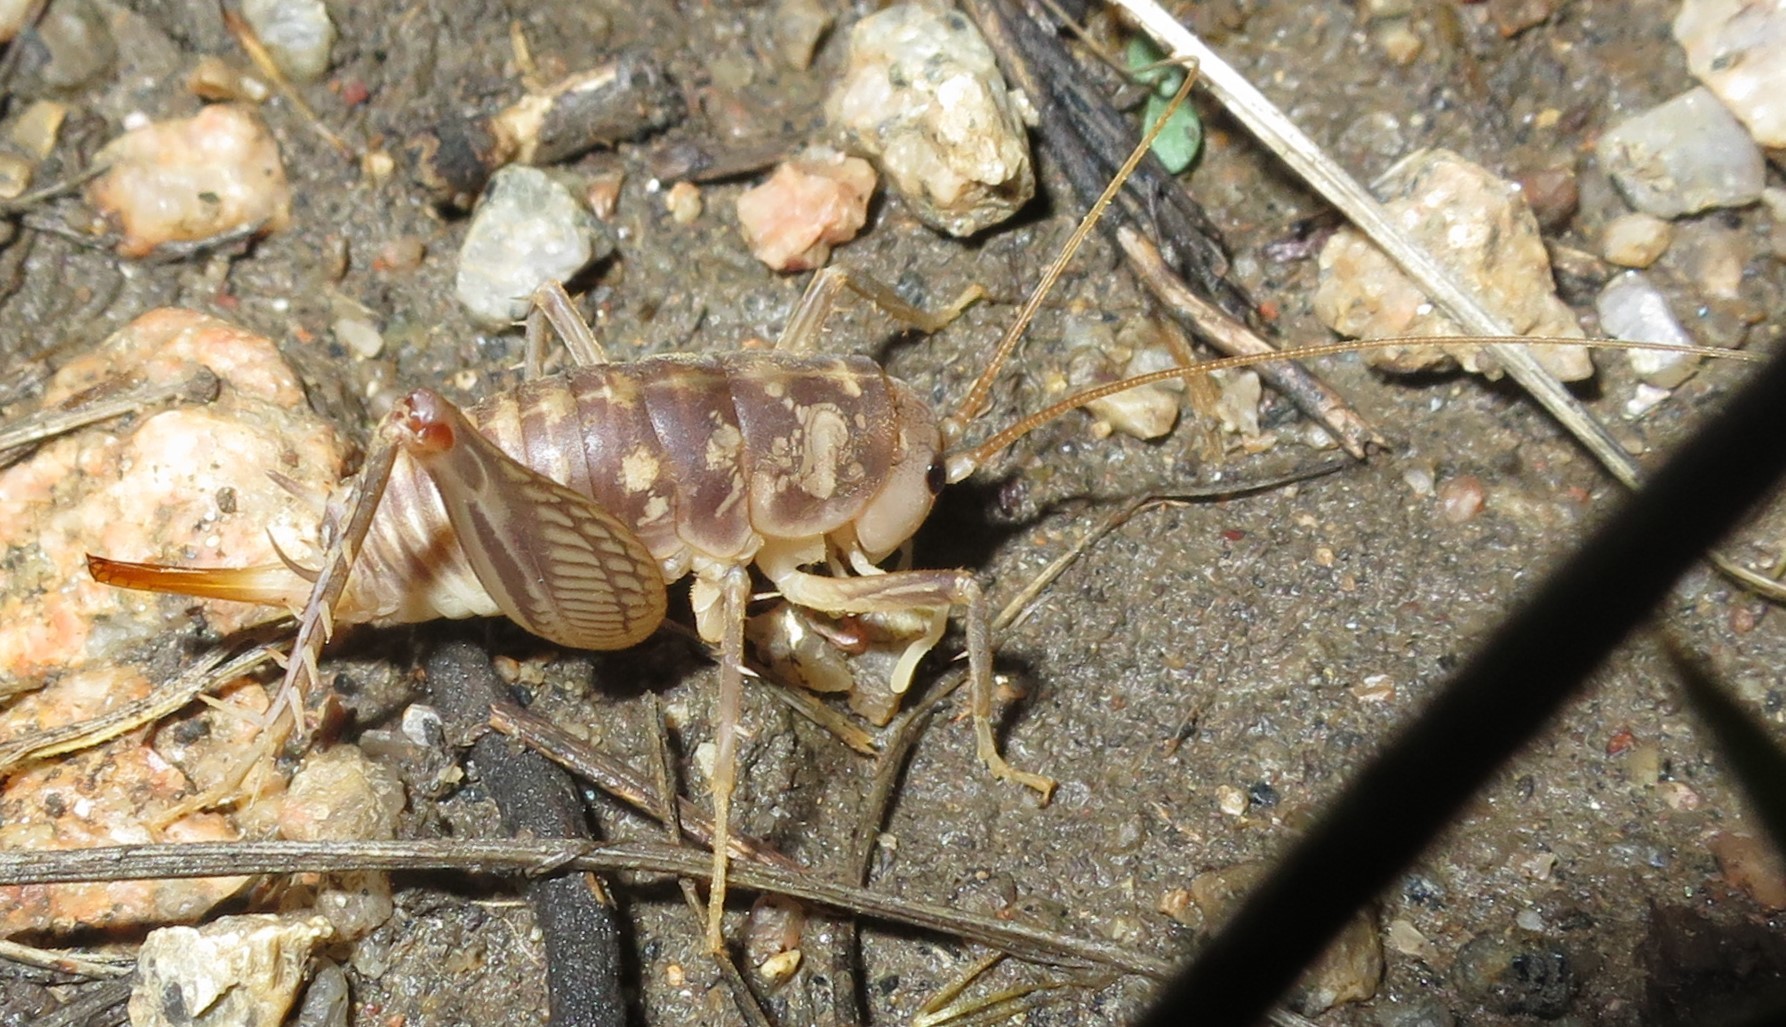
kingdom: Animalia
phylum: Arthropoda
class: Insecta
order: Orthoptera
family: Rhaphidophoridae
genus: Ceuthophilus
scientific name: Ceuthophilus pallidus
